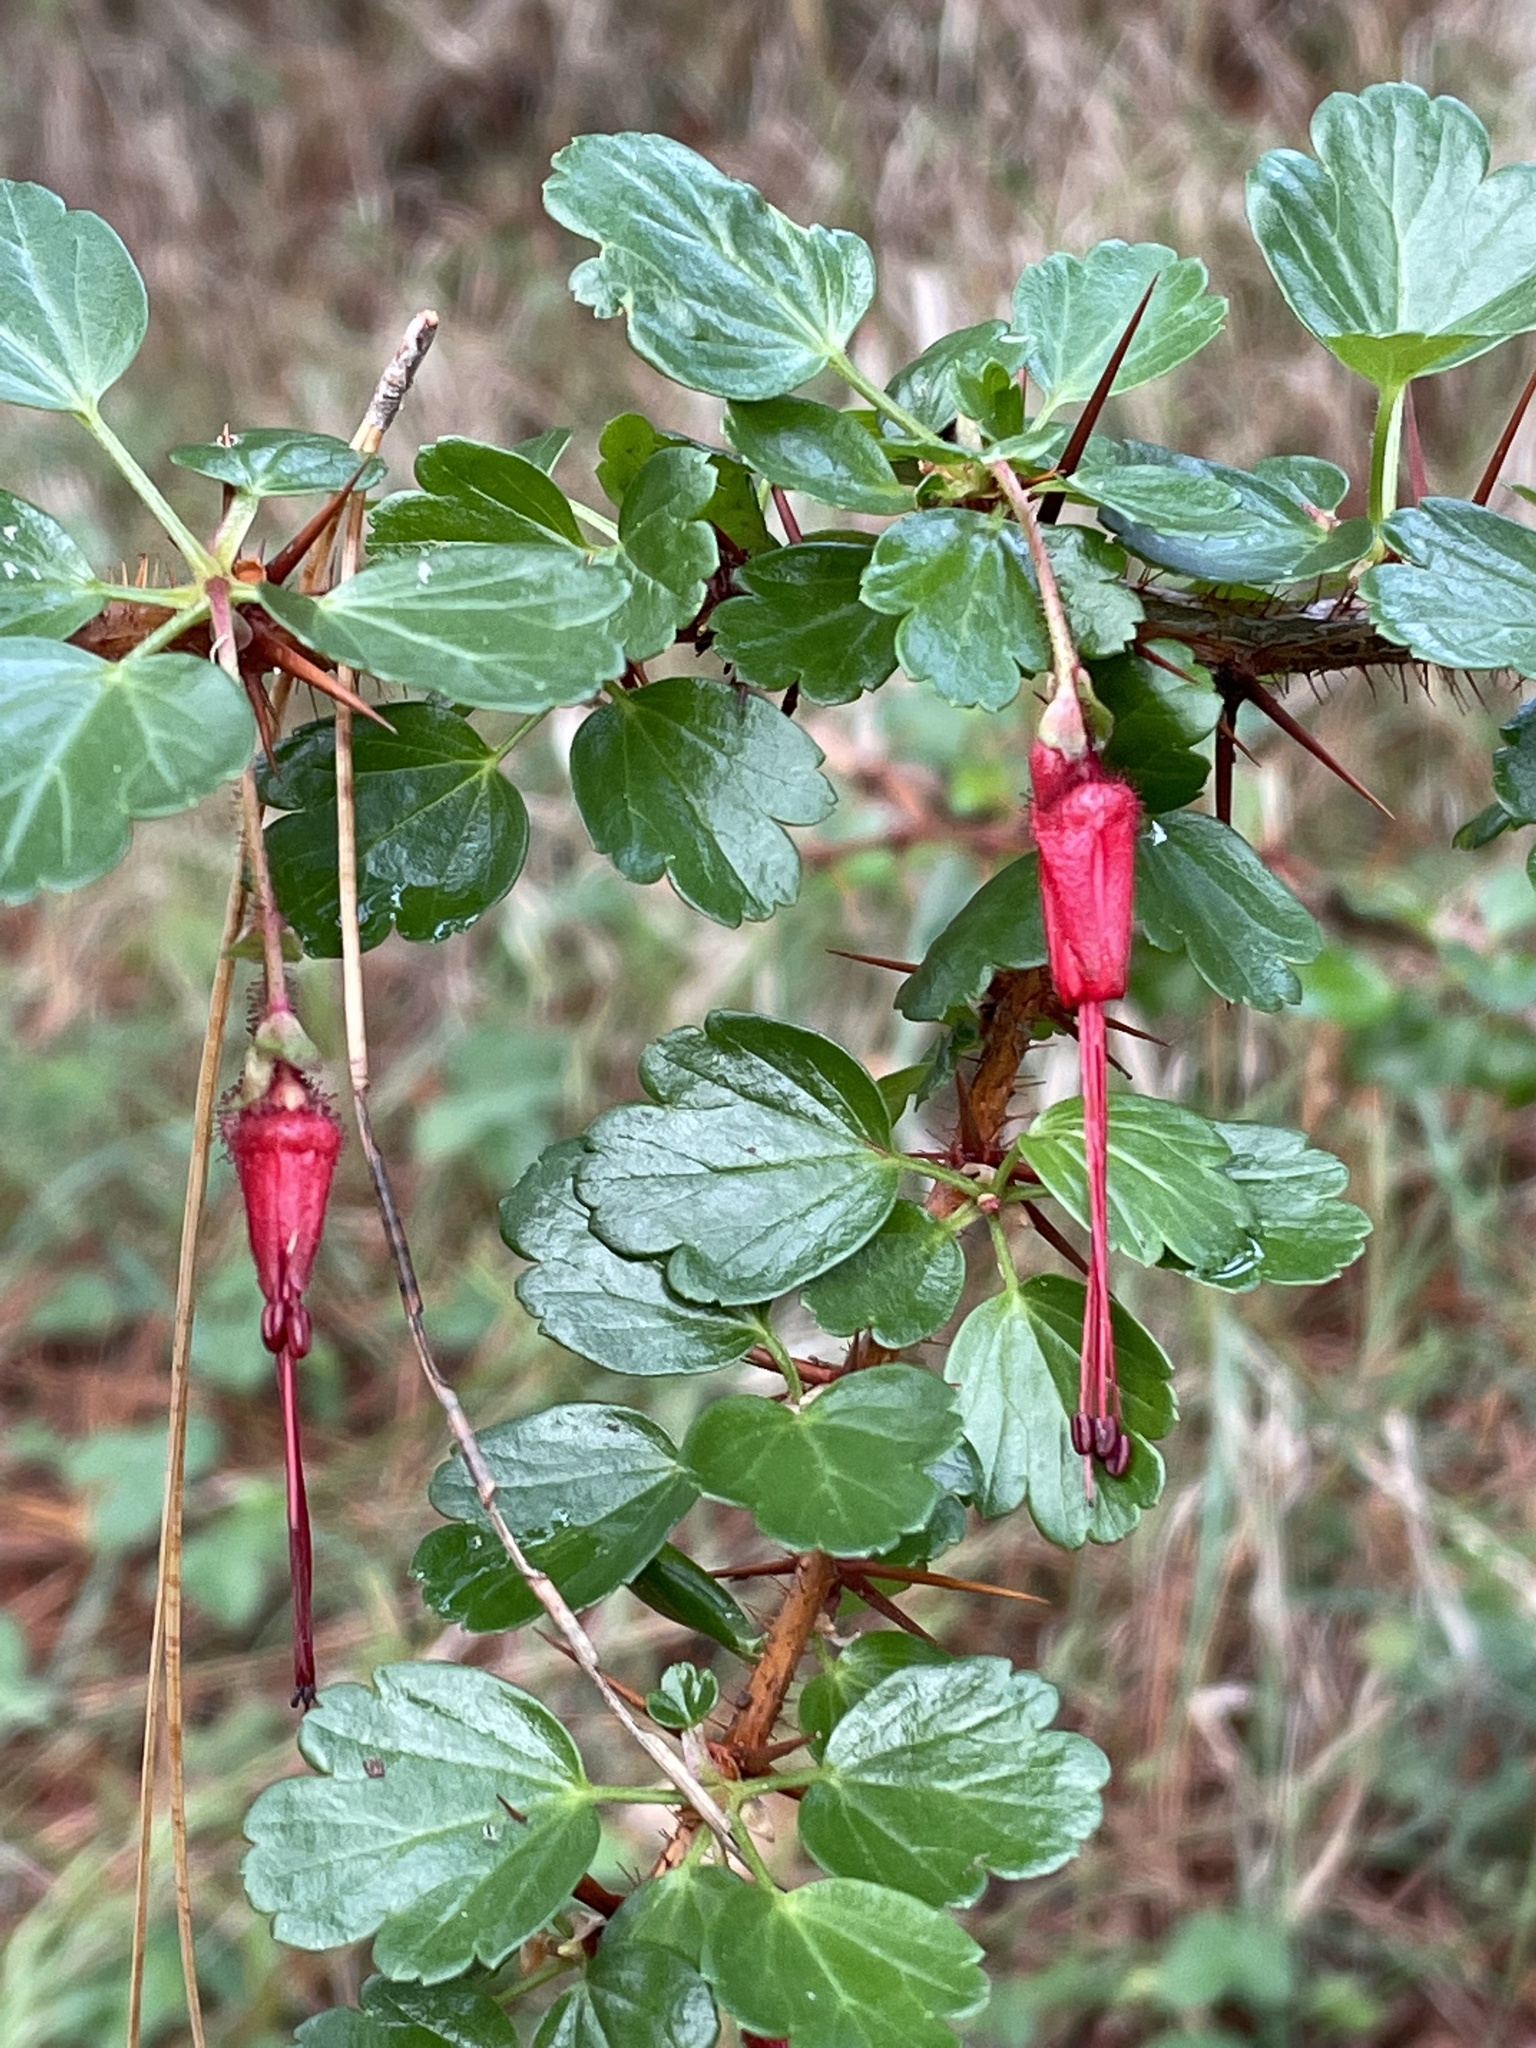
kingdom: Plantae
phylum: Tracheophyta
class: Magnoliopsida
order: Saxifragales
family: Grossulariaceae
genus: Ribes
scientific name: Ribes speciosum
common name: Fuchsia-flower gooseberry
